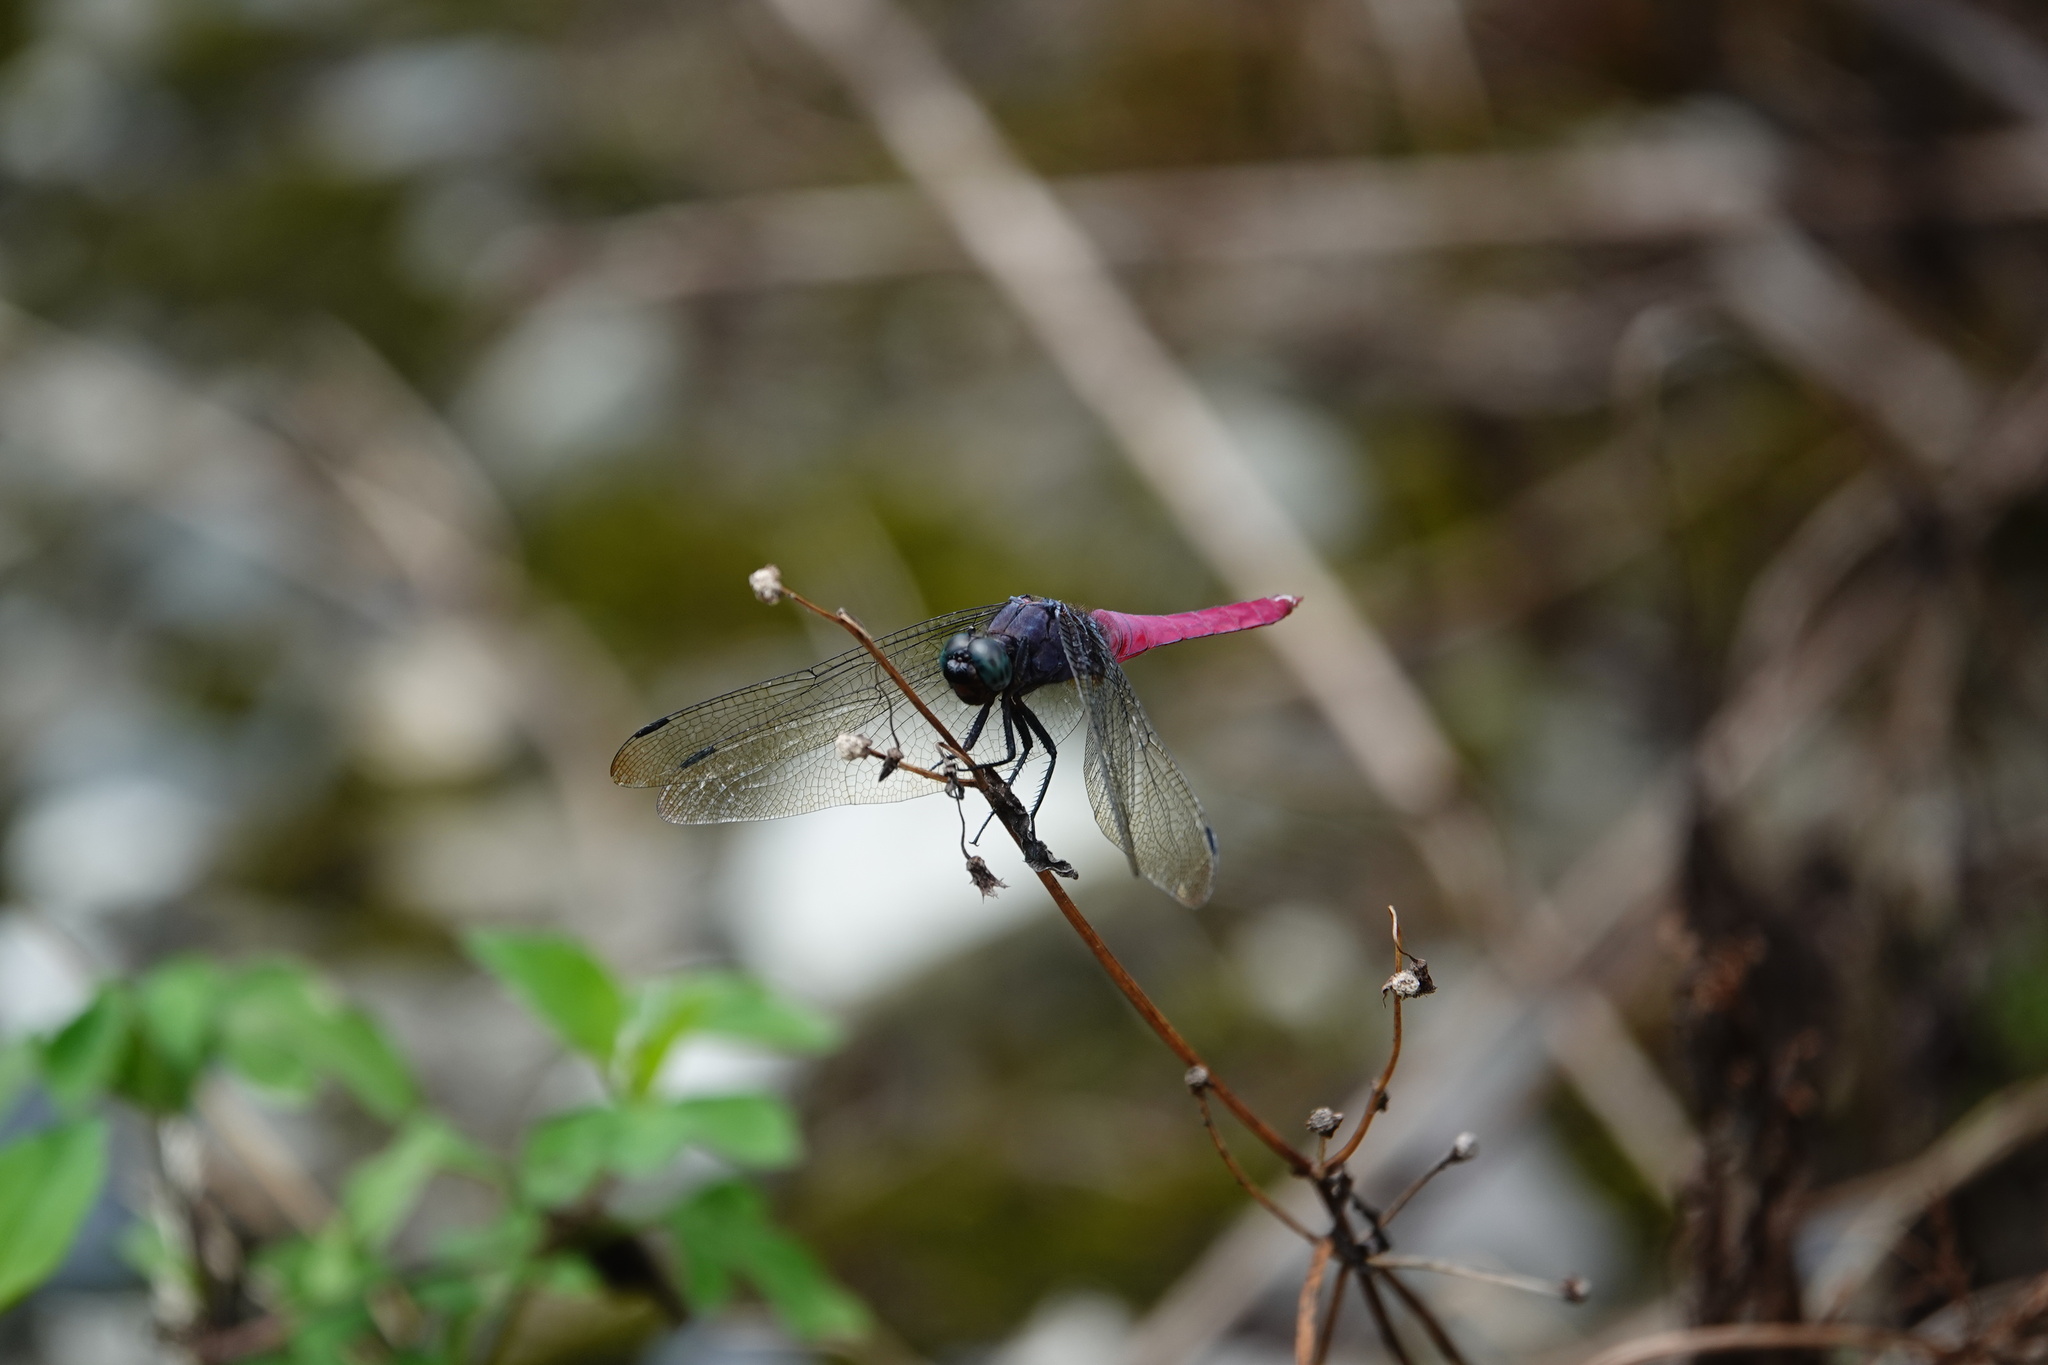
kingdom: Animalia
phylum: Arthropoda
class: Insecta
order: Odonata
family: Libellulidae
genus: Orthetrum
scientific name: Orthetrum pruinosum
